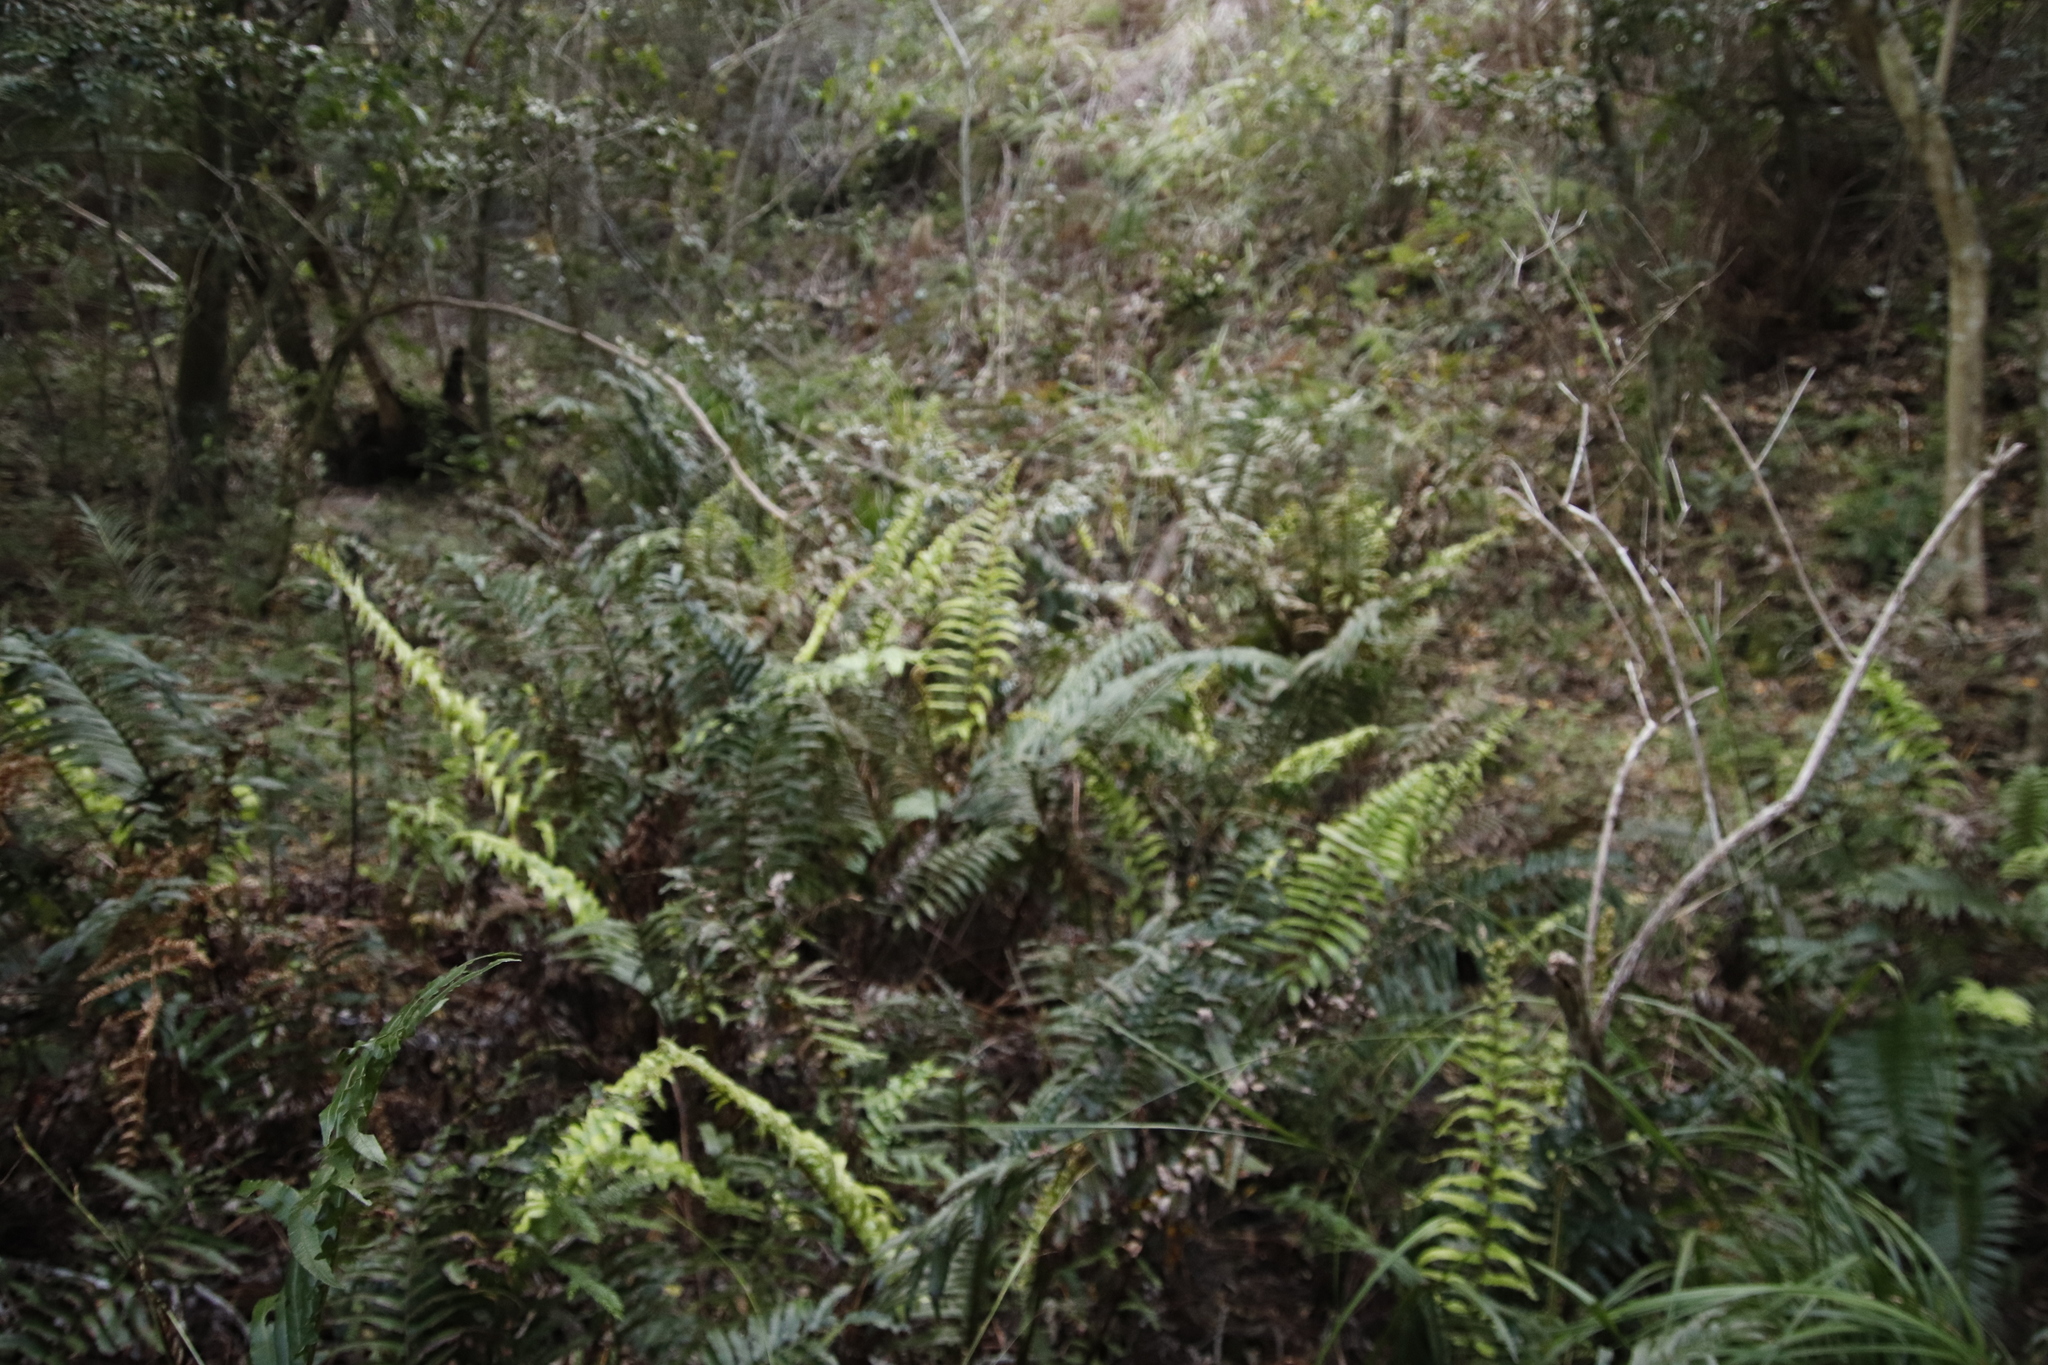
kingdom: Plantae
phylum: Tracheophyta
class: Polypodiopsida
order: Polypodiales
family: Blechnaceae
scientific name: Blechnaceae
